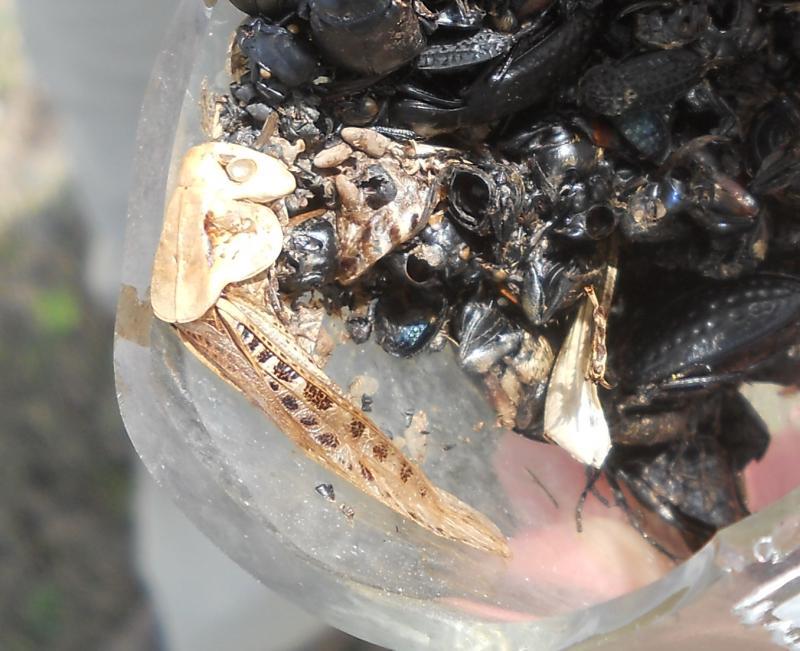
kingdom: Animalia
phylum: Arthropoda
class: Insecta
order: Orthoptera
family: Tettigoniidae
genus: Decticus
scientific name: Decticus verrucivorus
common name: Wart-biter
